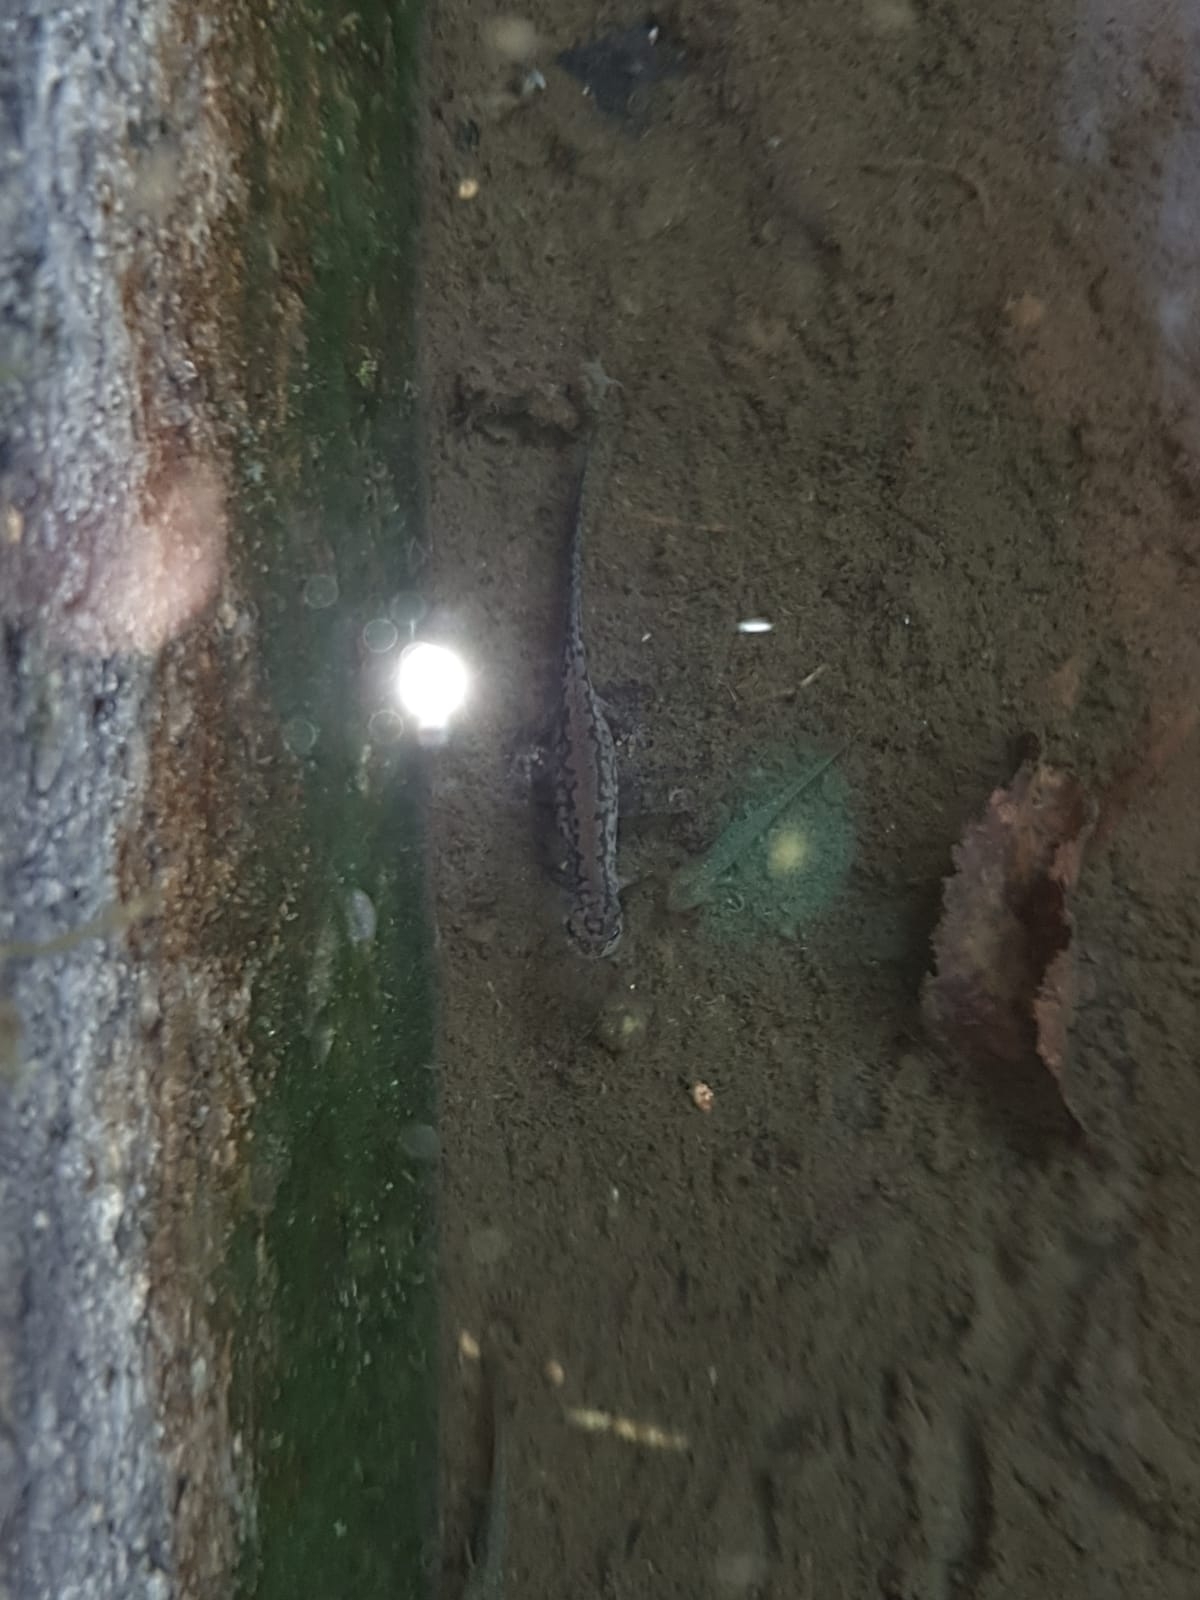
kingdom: Animalia
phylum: Chordata
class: Amphibia
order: Caudata
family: Salamandridae
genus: Ichthyosaura
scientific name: Ichthyosaura alpestris
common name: Alpine newt
